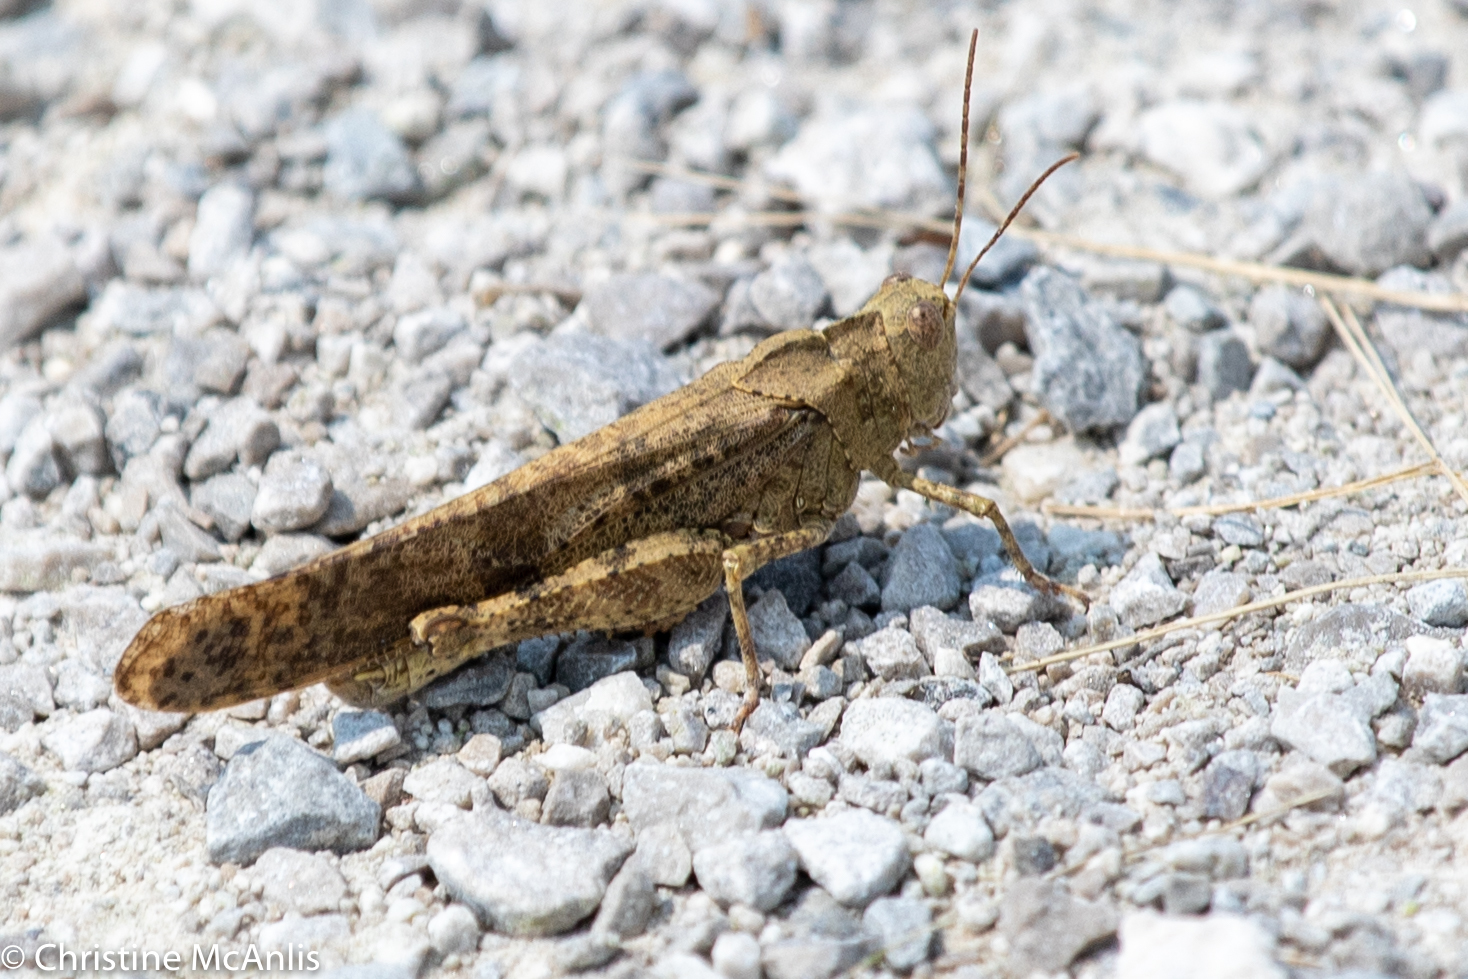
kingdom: Animalia
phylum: Arthropoda
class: Insecta
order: Orthoptera
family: Acrididae
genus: Dissosteira
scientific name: Dissosteira carolina
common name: Carolina grasshopper
